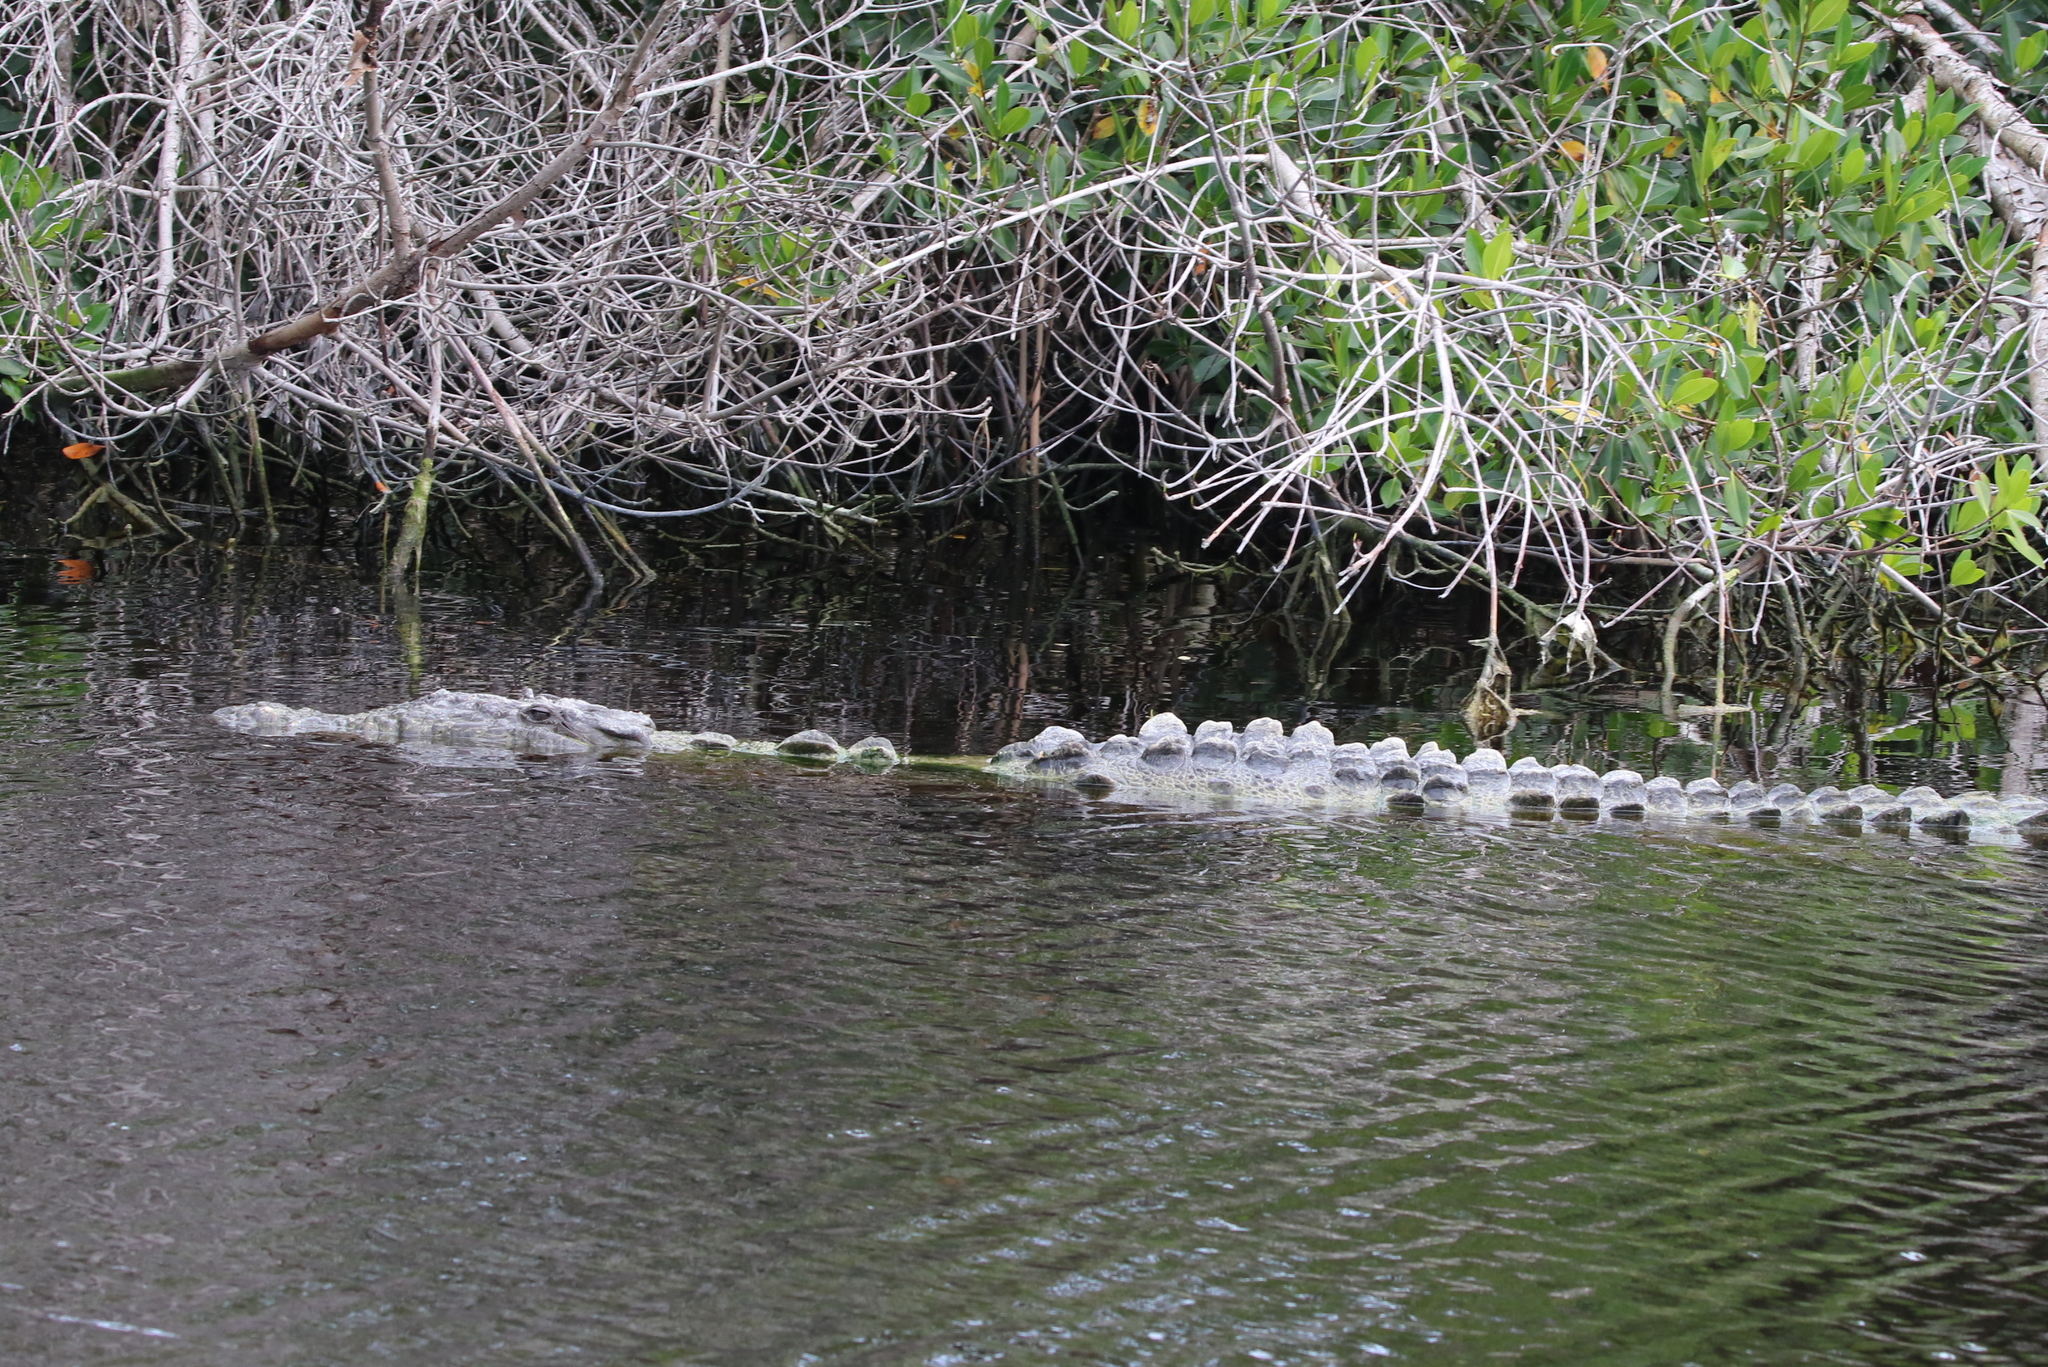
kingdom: Animalia
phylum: Chordata
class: Crocodylia
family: Crocodylidae
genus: Crocodylus
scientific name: Crocodylus acutus
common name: American crocodile
